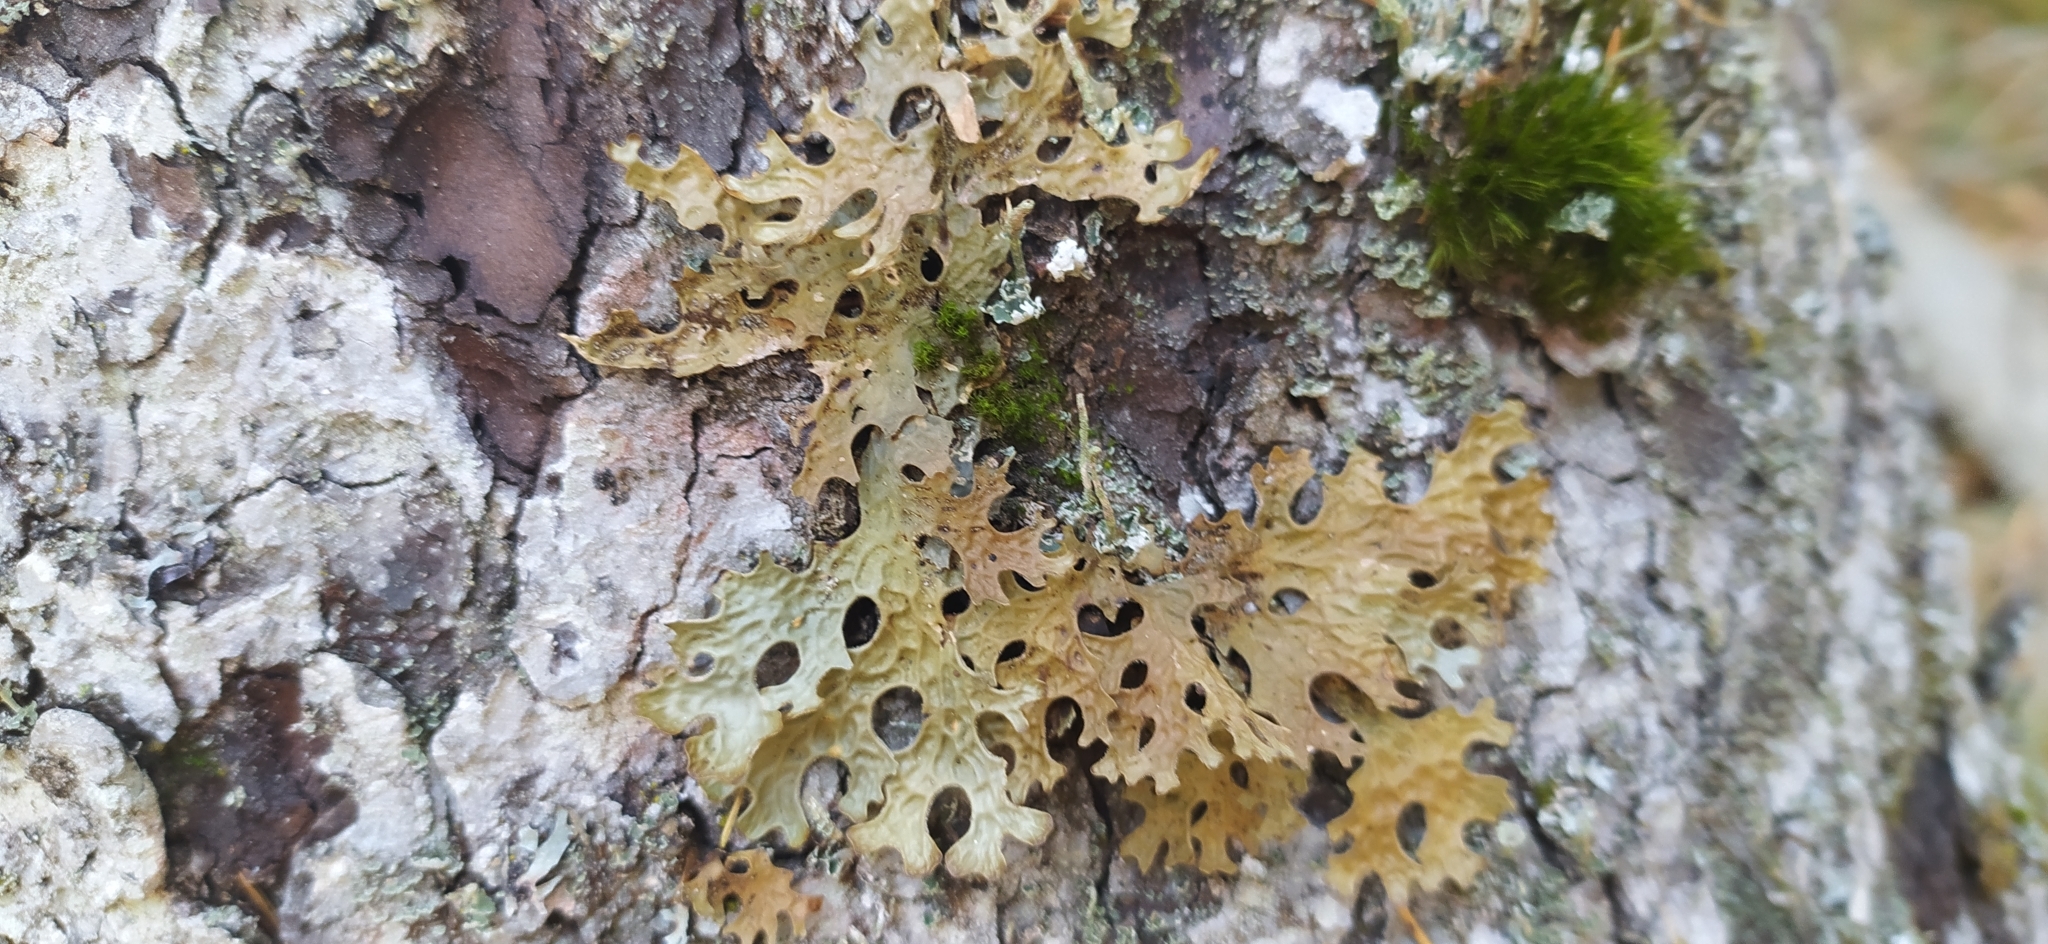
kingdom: Fungi
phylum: Ascomycota
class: Lecanoromycetes
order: Peltigerales
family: Lobariaceae
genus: Lobaria
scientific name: Lobaria pulmonaria
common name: Lungwort
